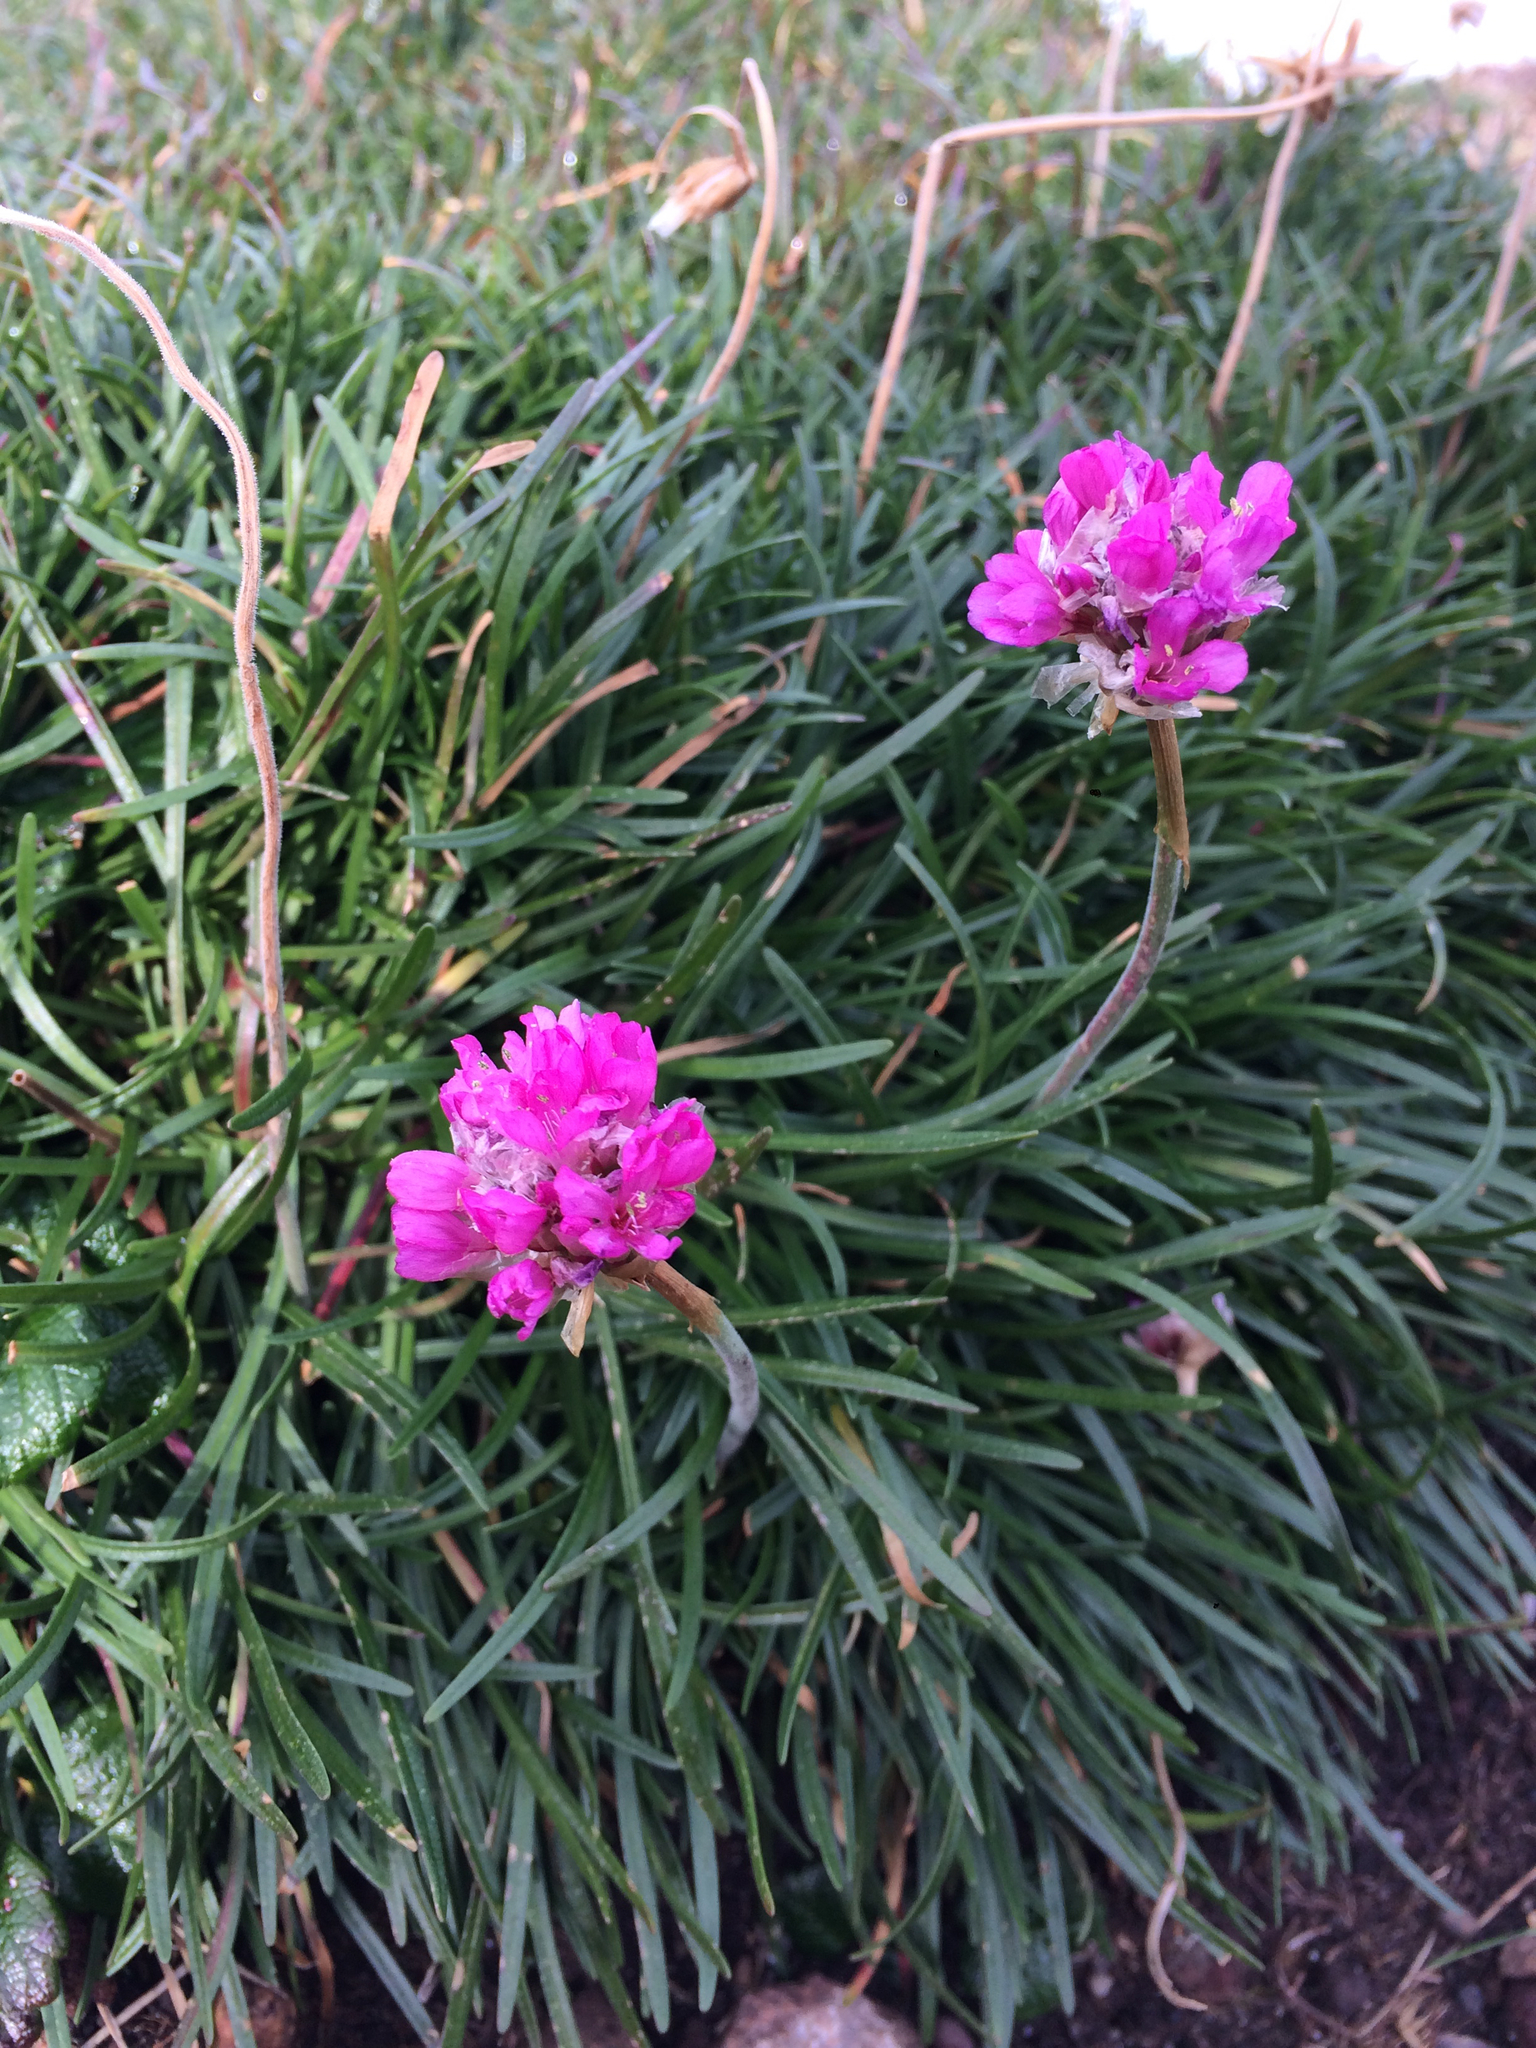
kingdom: Plantae
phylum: Tracheophyta
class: Magnoliopsida
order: Caryophyllales
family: Plumbaginaceae
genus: Armeria
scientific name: Armeria maritima
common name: Thrift
